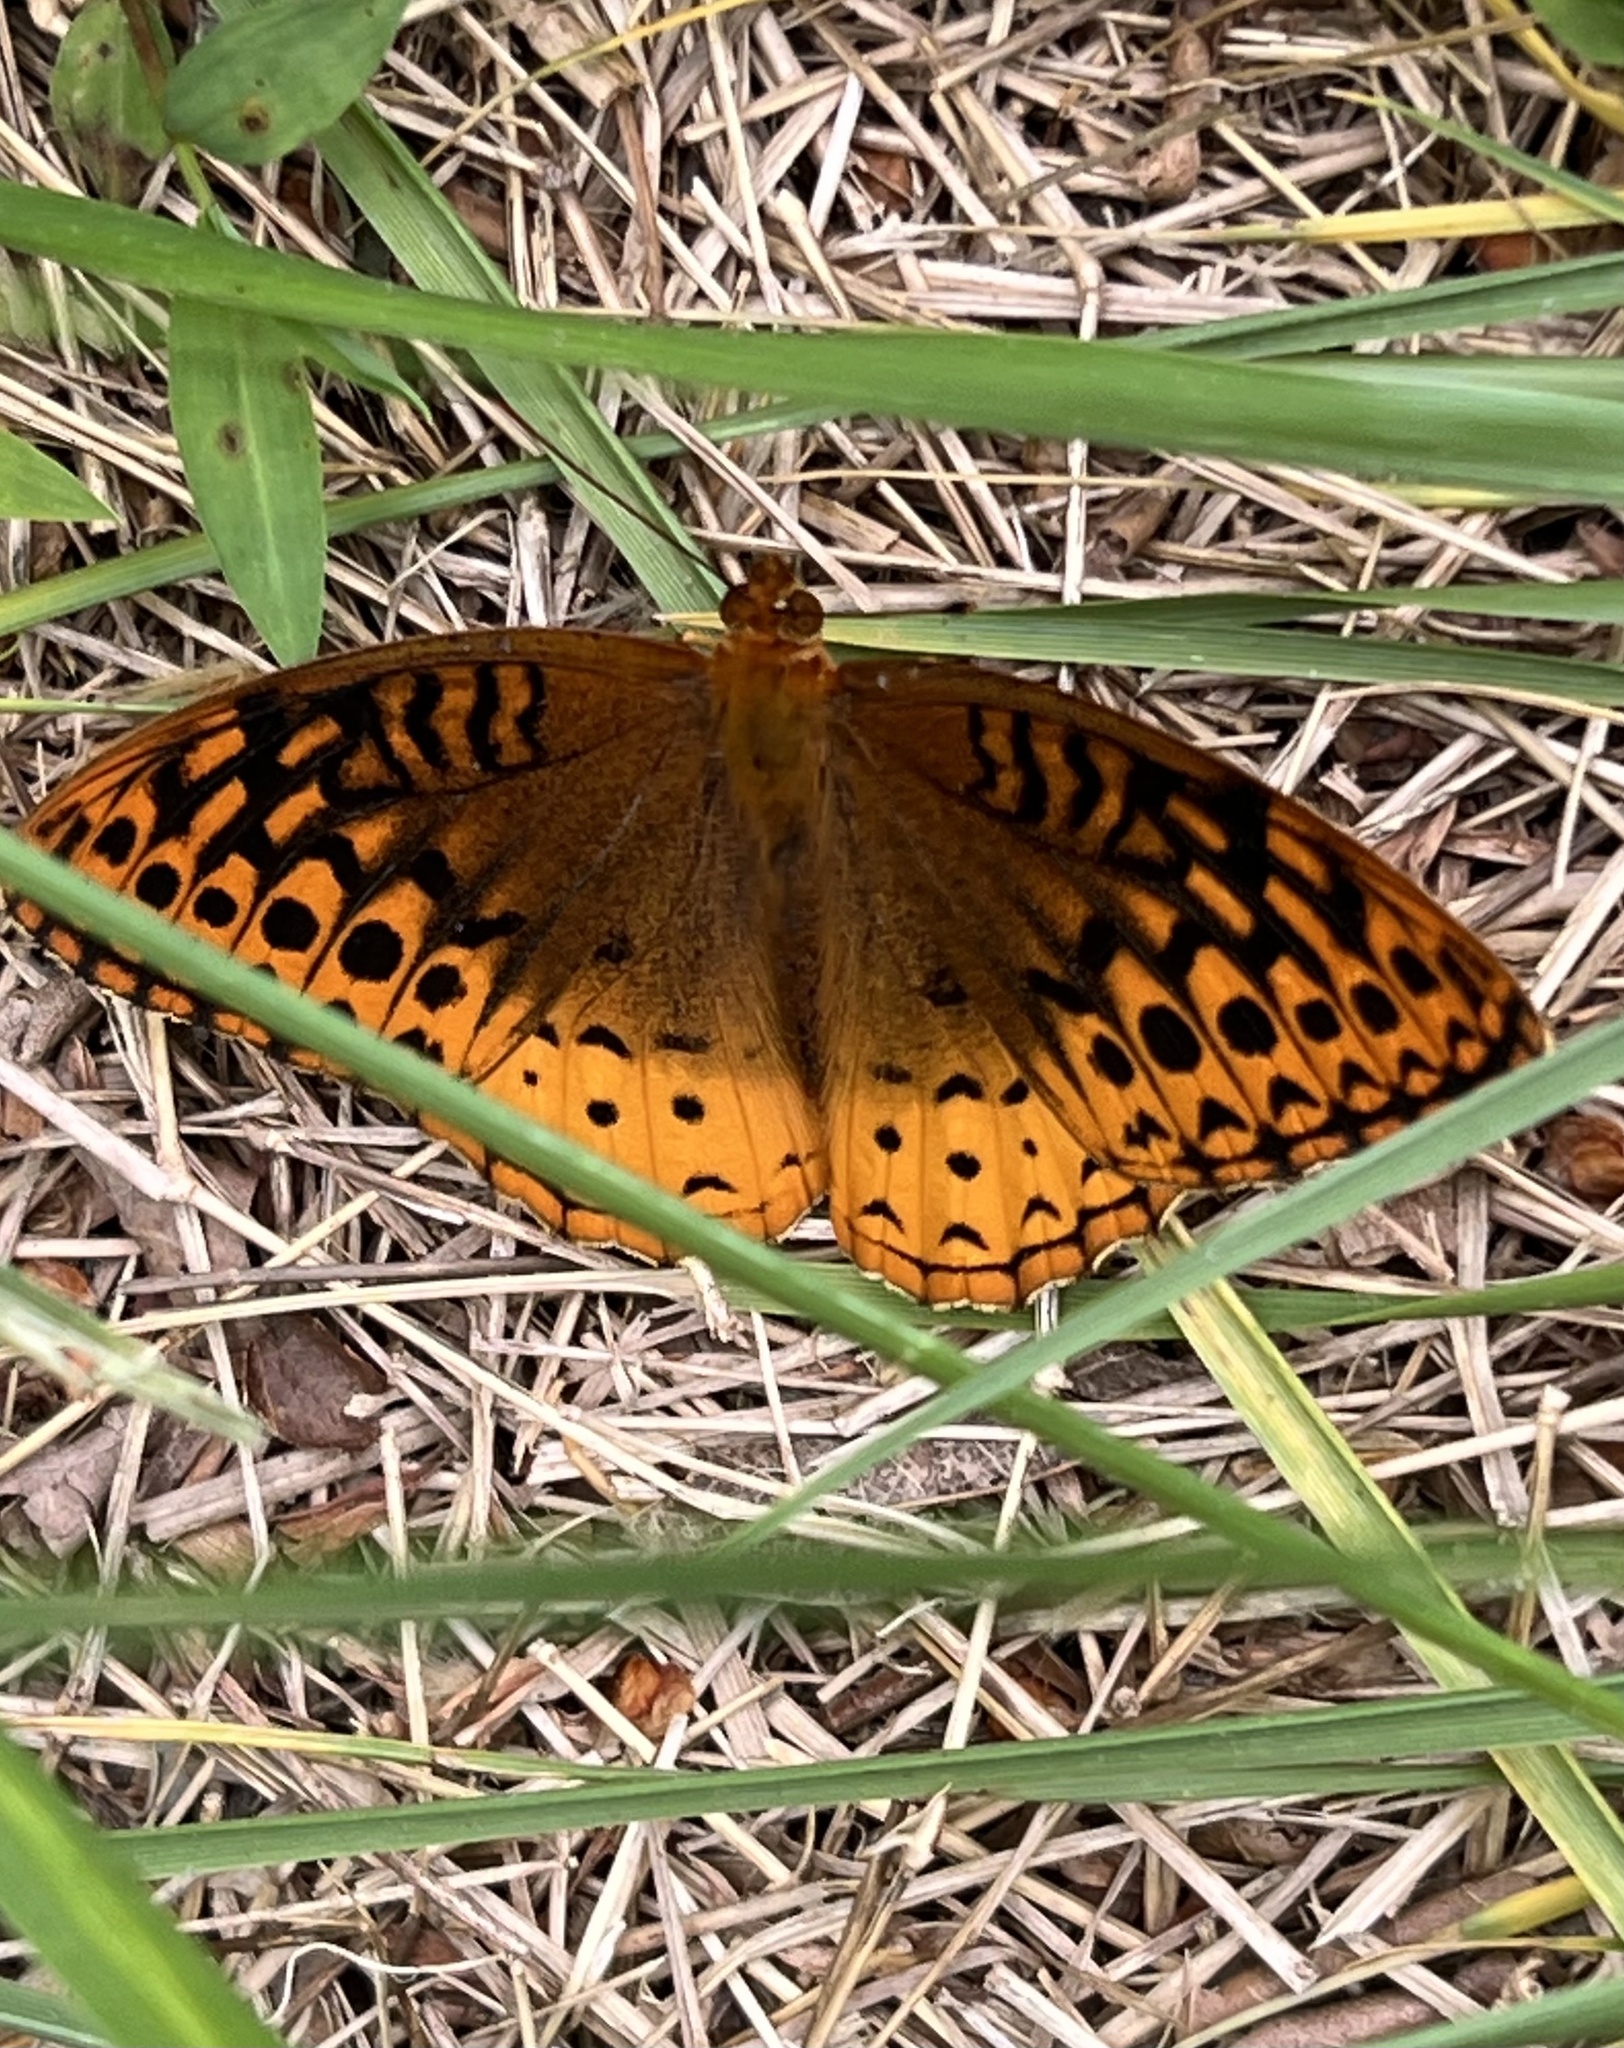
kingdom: Animalia
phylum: Arthropoda
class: Insecta
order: Lepidoptera
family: Nymphalidae
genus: Speyeria
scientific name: Speyeria cybele
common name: Great spangled fritillary
